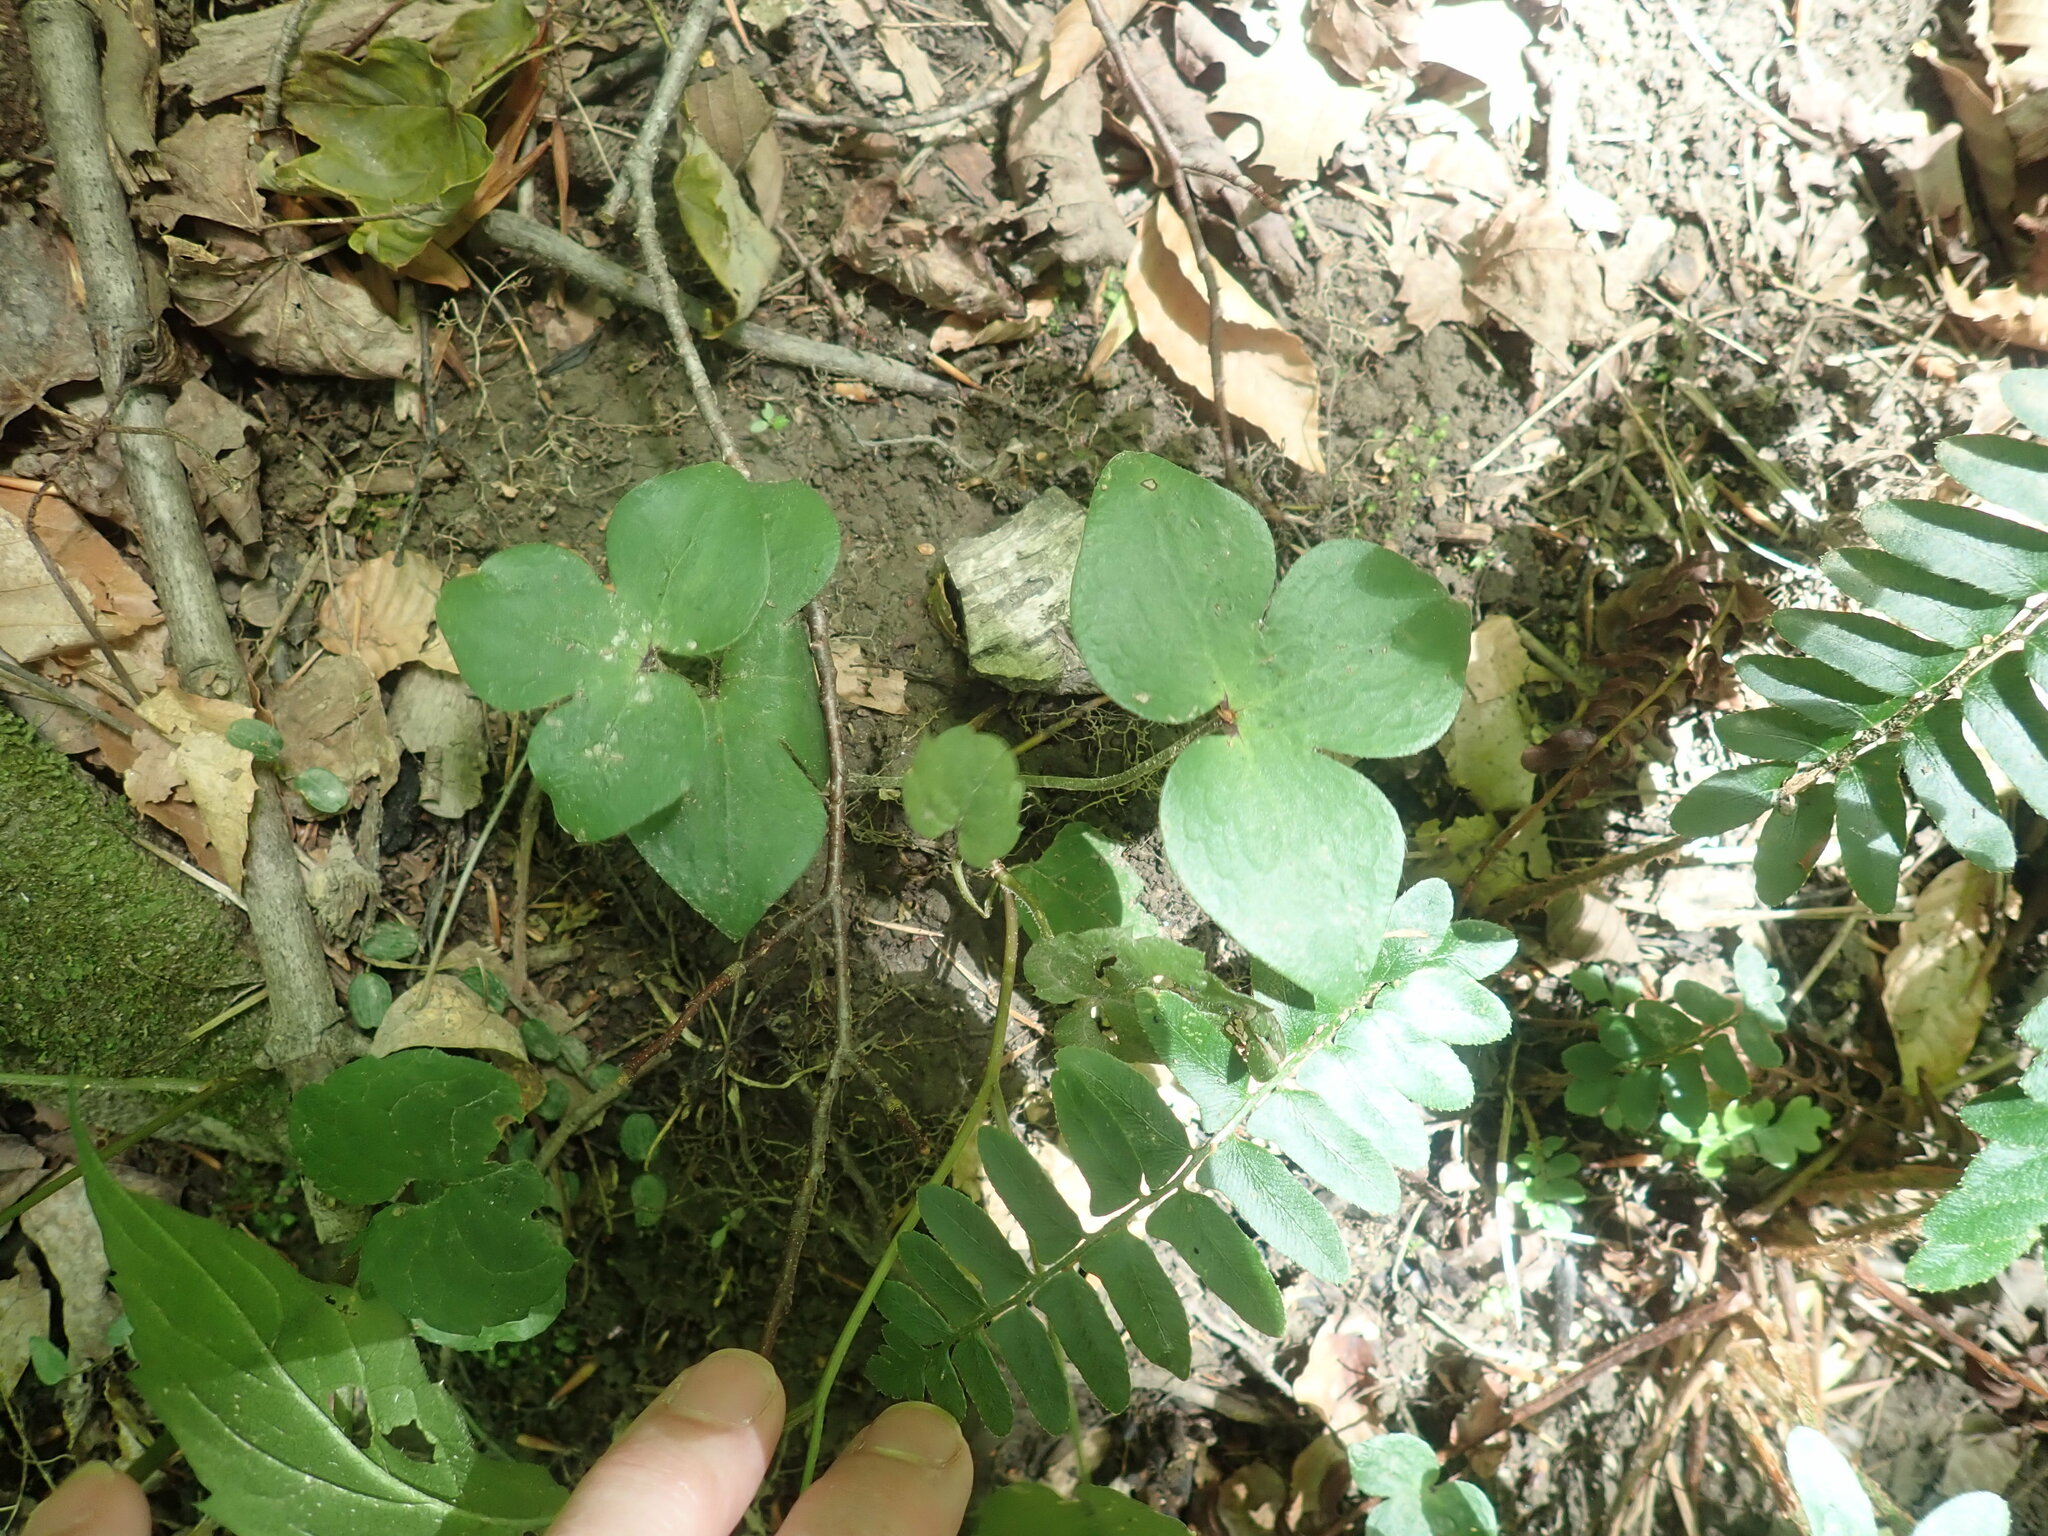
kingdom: Plantae
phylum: Tracheophyta
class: Magnoliopsida
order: Ranunculales
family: Ranunculaceae
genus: Hepatica
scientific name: Hepatica acutiloba
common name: Sharp-lobed hepatica
